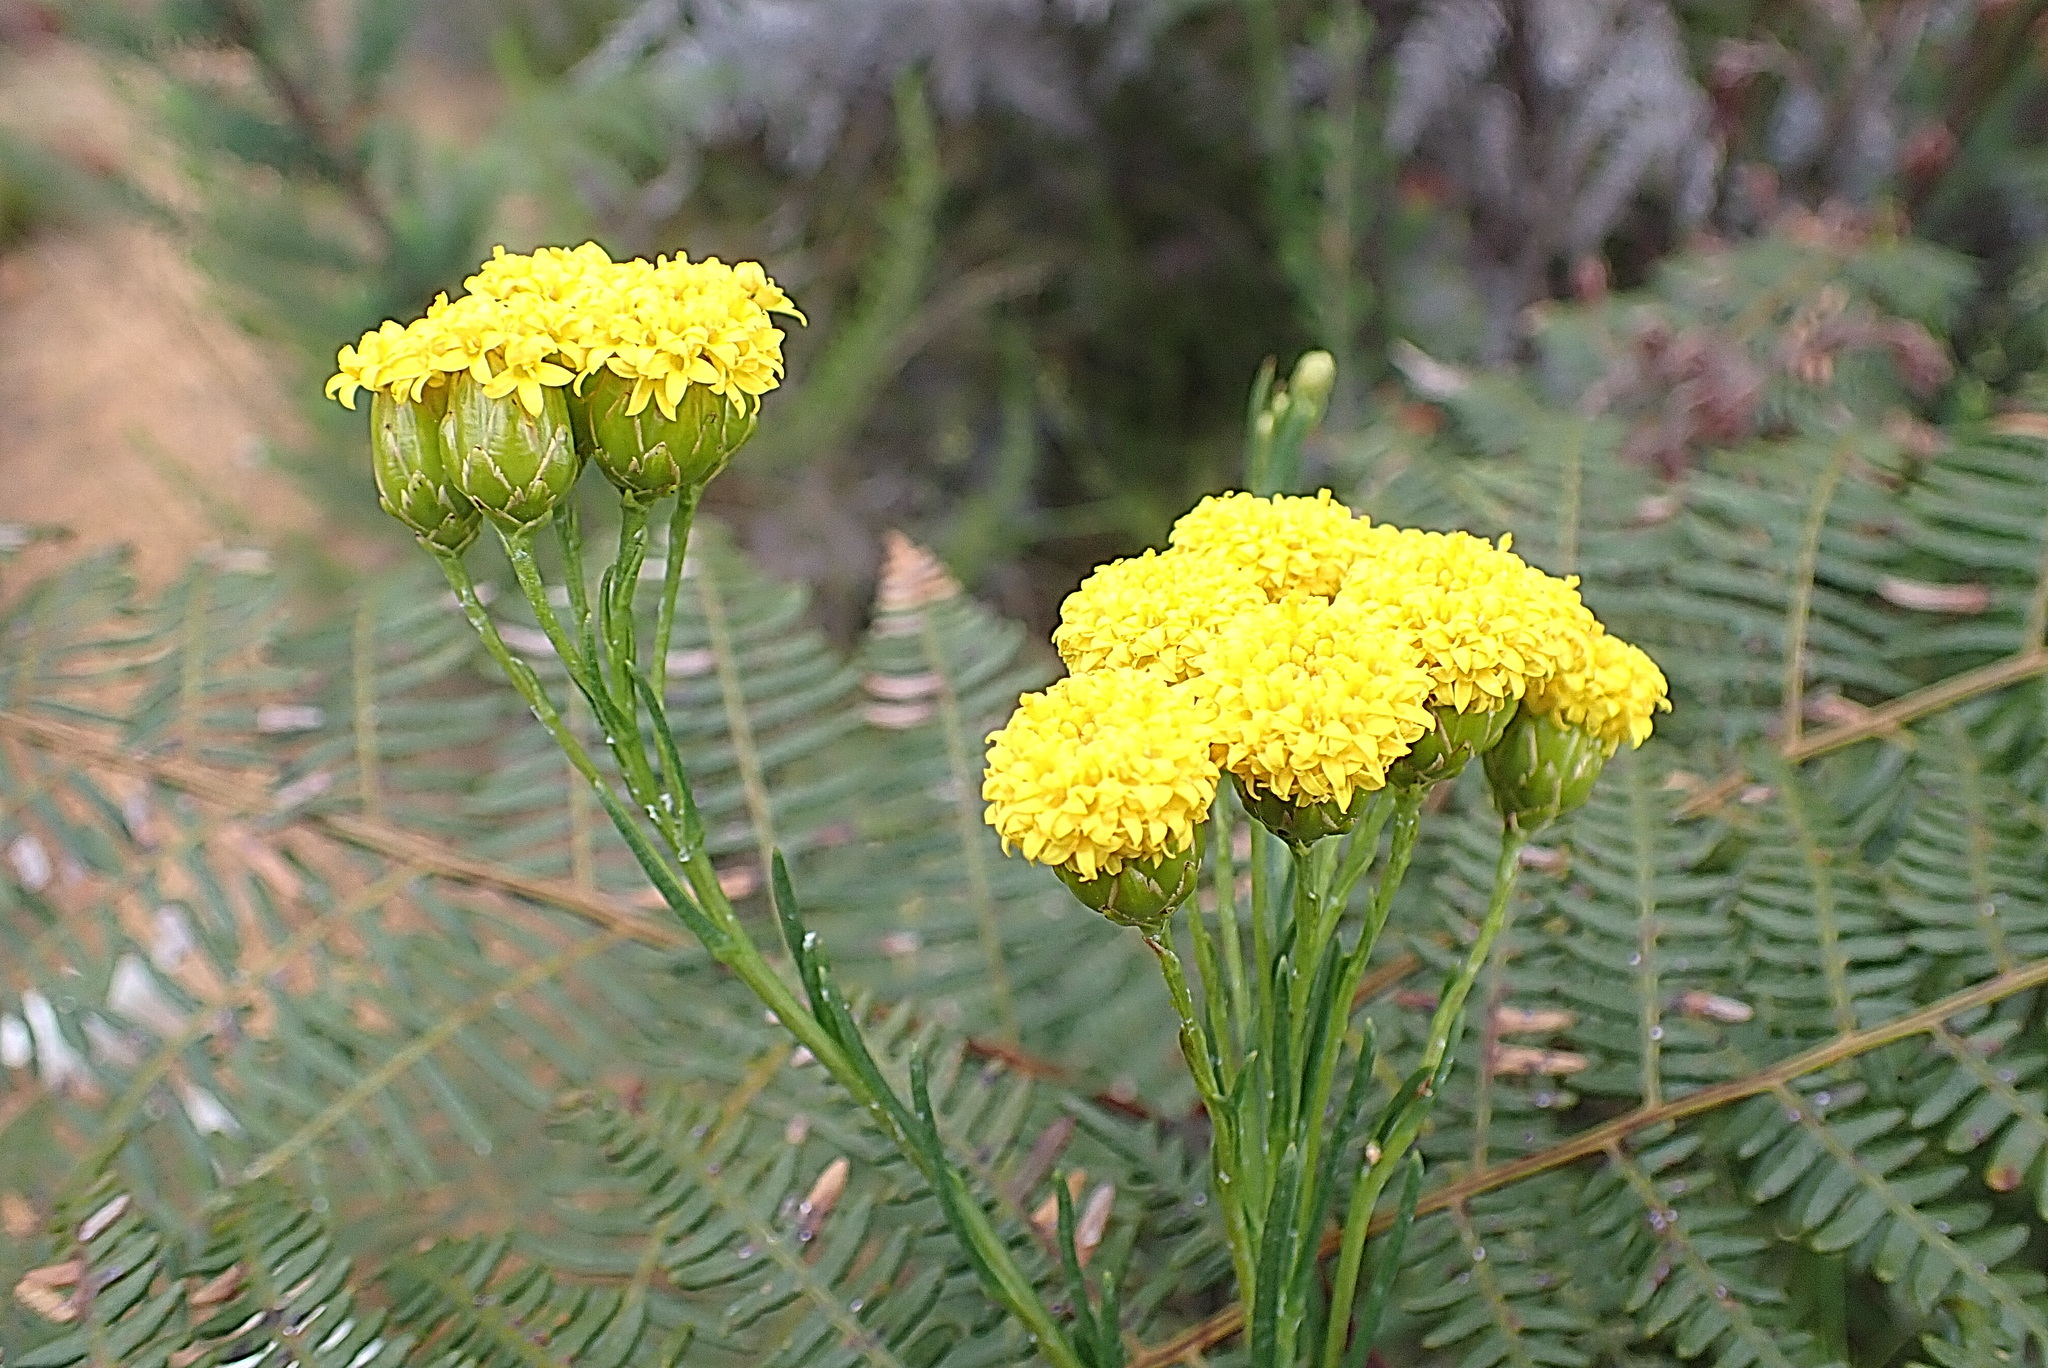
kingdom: Plantae
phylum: Tracheophyta
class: Magnoliopsida
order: Asterales
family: Asteraceae
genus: Athanasia
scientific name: Athanasia linifolia
